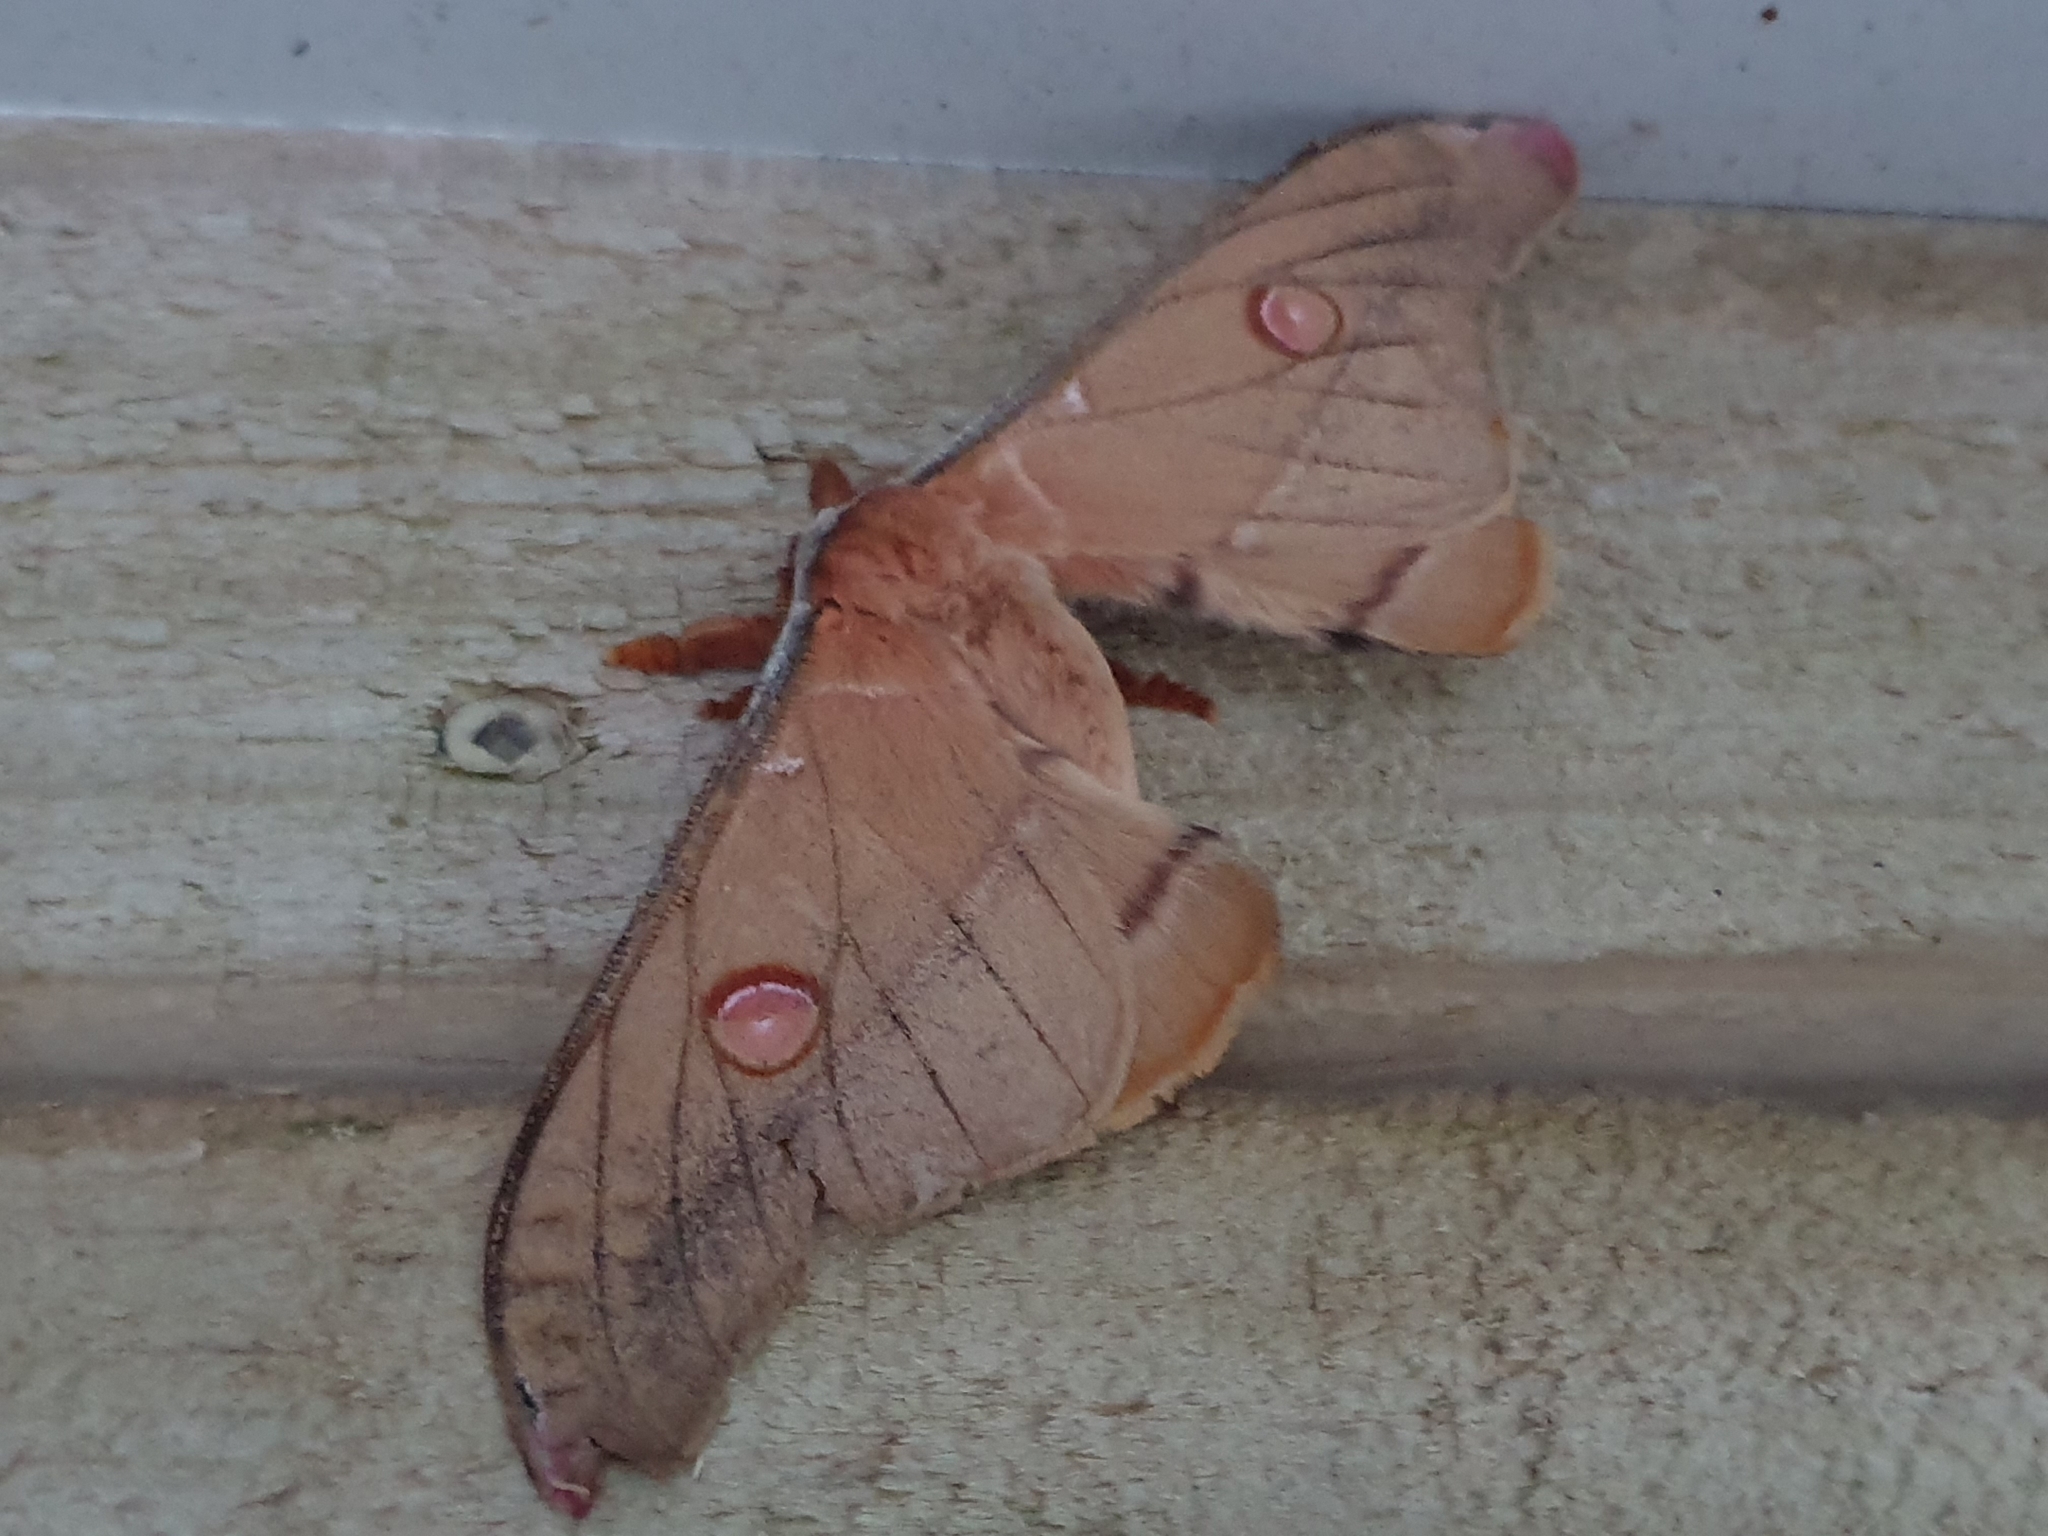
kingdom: Animalia
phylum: Arthropoda
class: Insecta
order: Lepidoptera
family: Saturniidae
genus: Opodiphthera
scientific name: Opodiphthera
